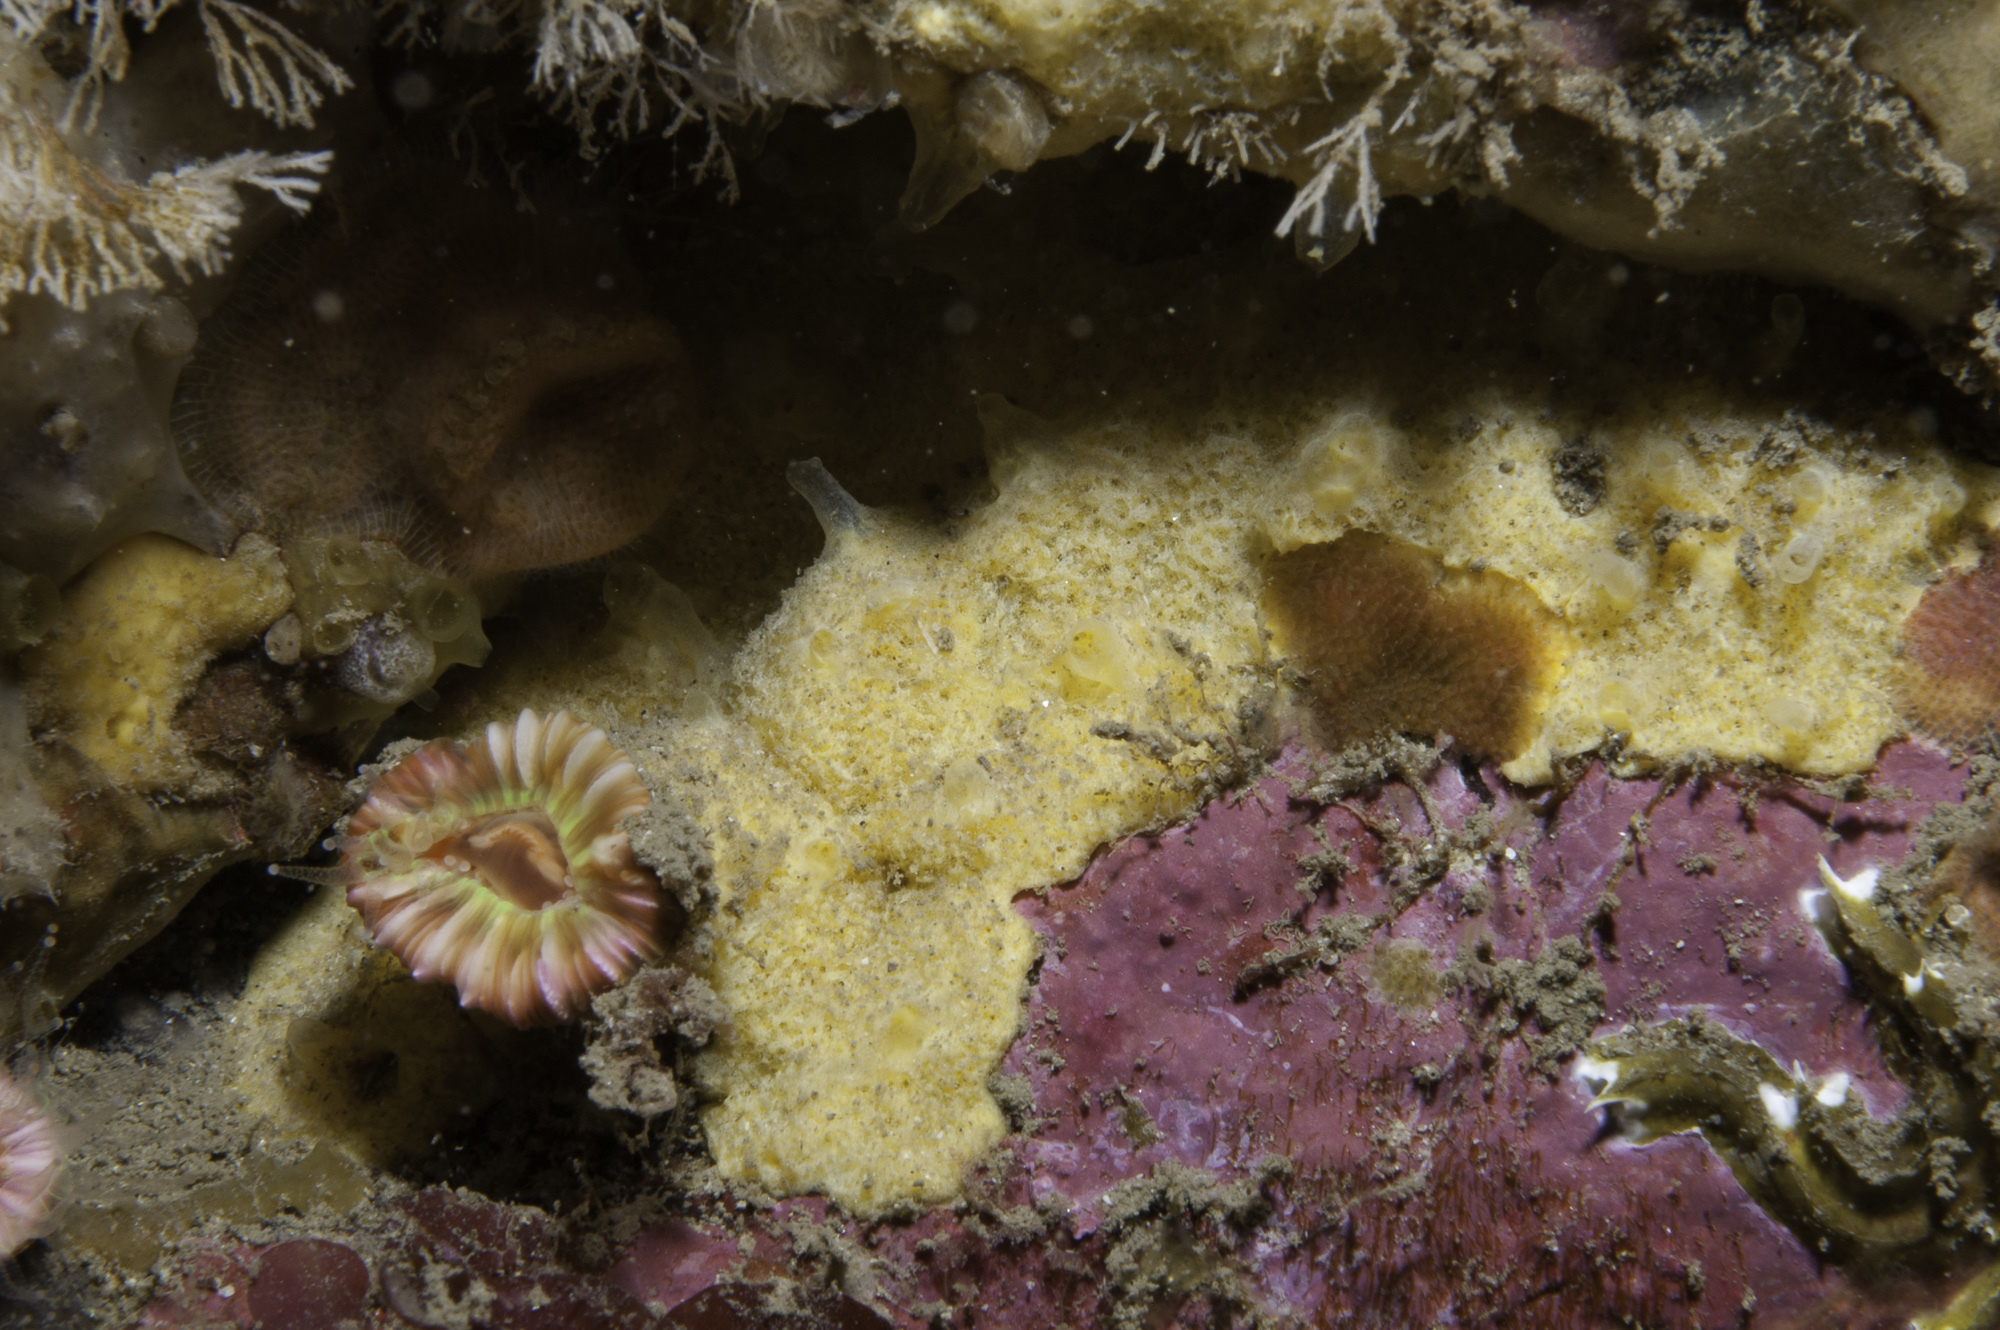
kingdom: Animalia
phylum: Porifera
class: Demospongiae
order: Agelasida
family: Hymerhabdiidae
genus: Hymerhabdia
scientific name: Hymerhabdia typica
